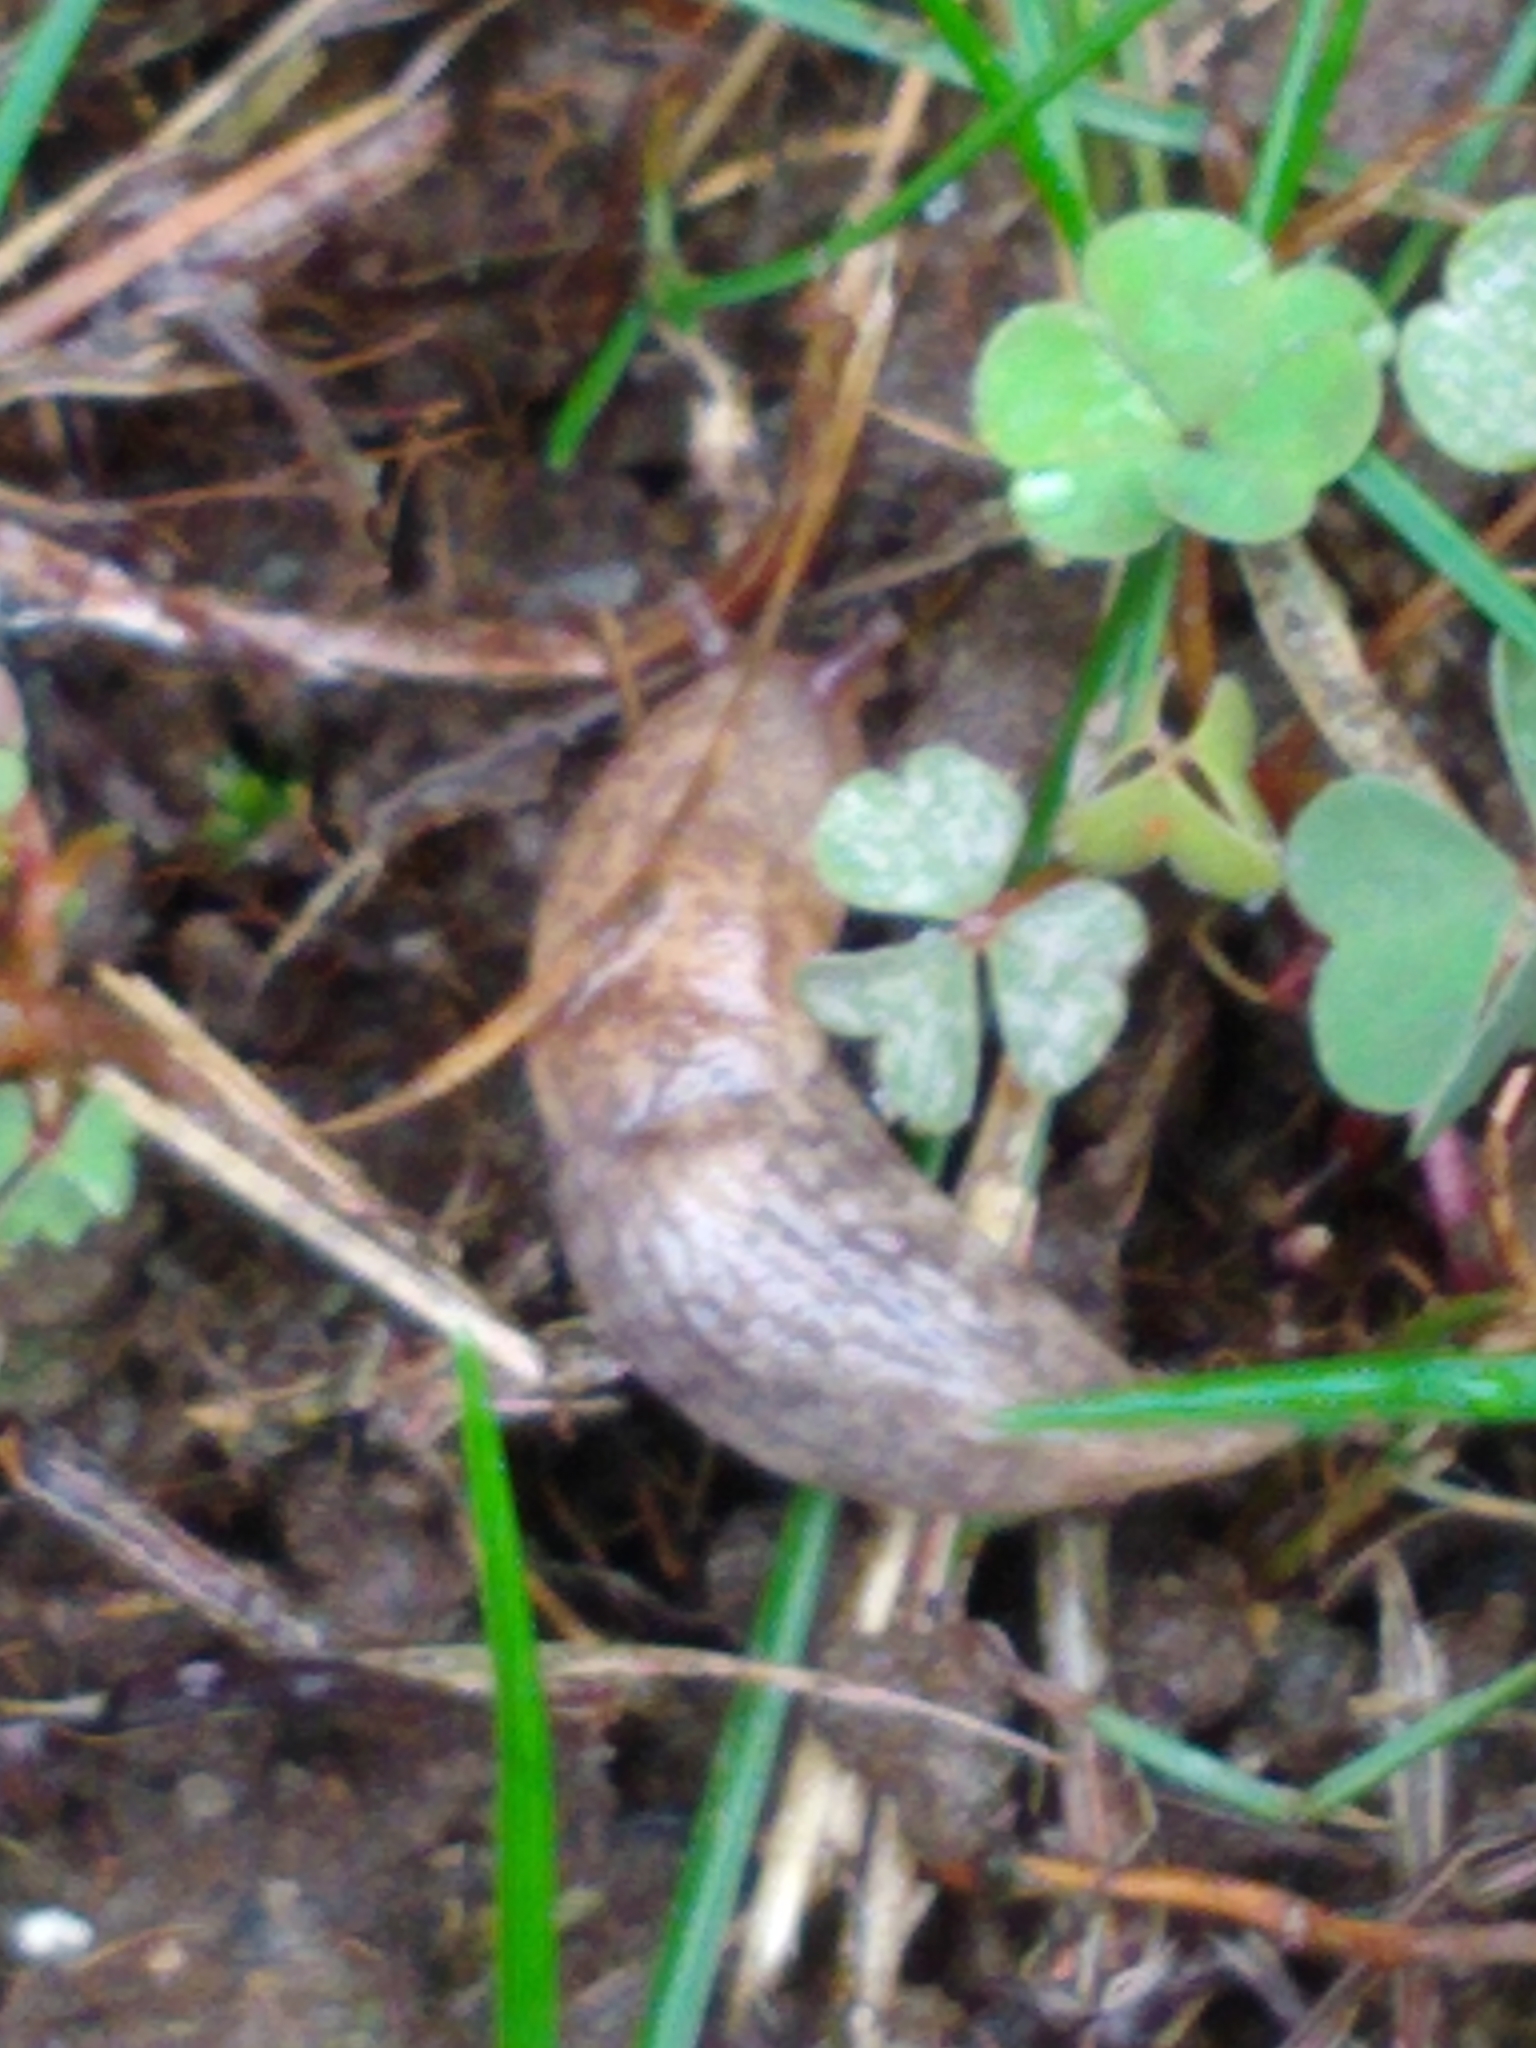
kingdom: Animalia
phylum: Mollusca
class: Gastropoda
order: Stylommatophora
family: Agriolimacidae
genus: Deroceras
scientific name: Deroceras reticulatum
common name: Gray field slug
